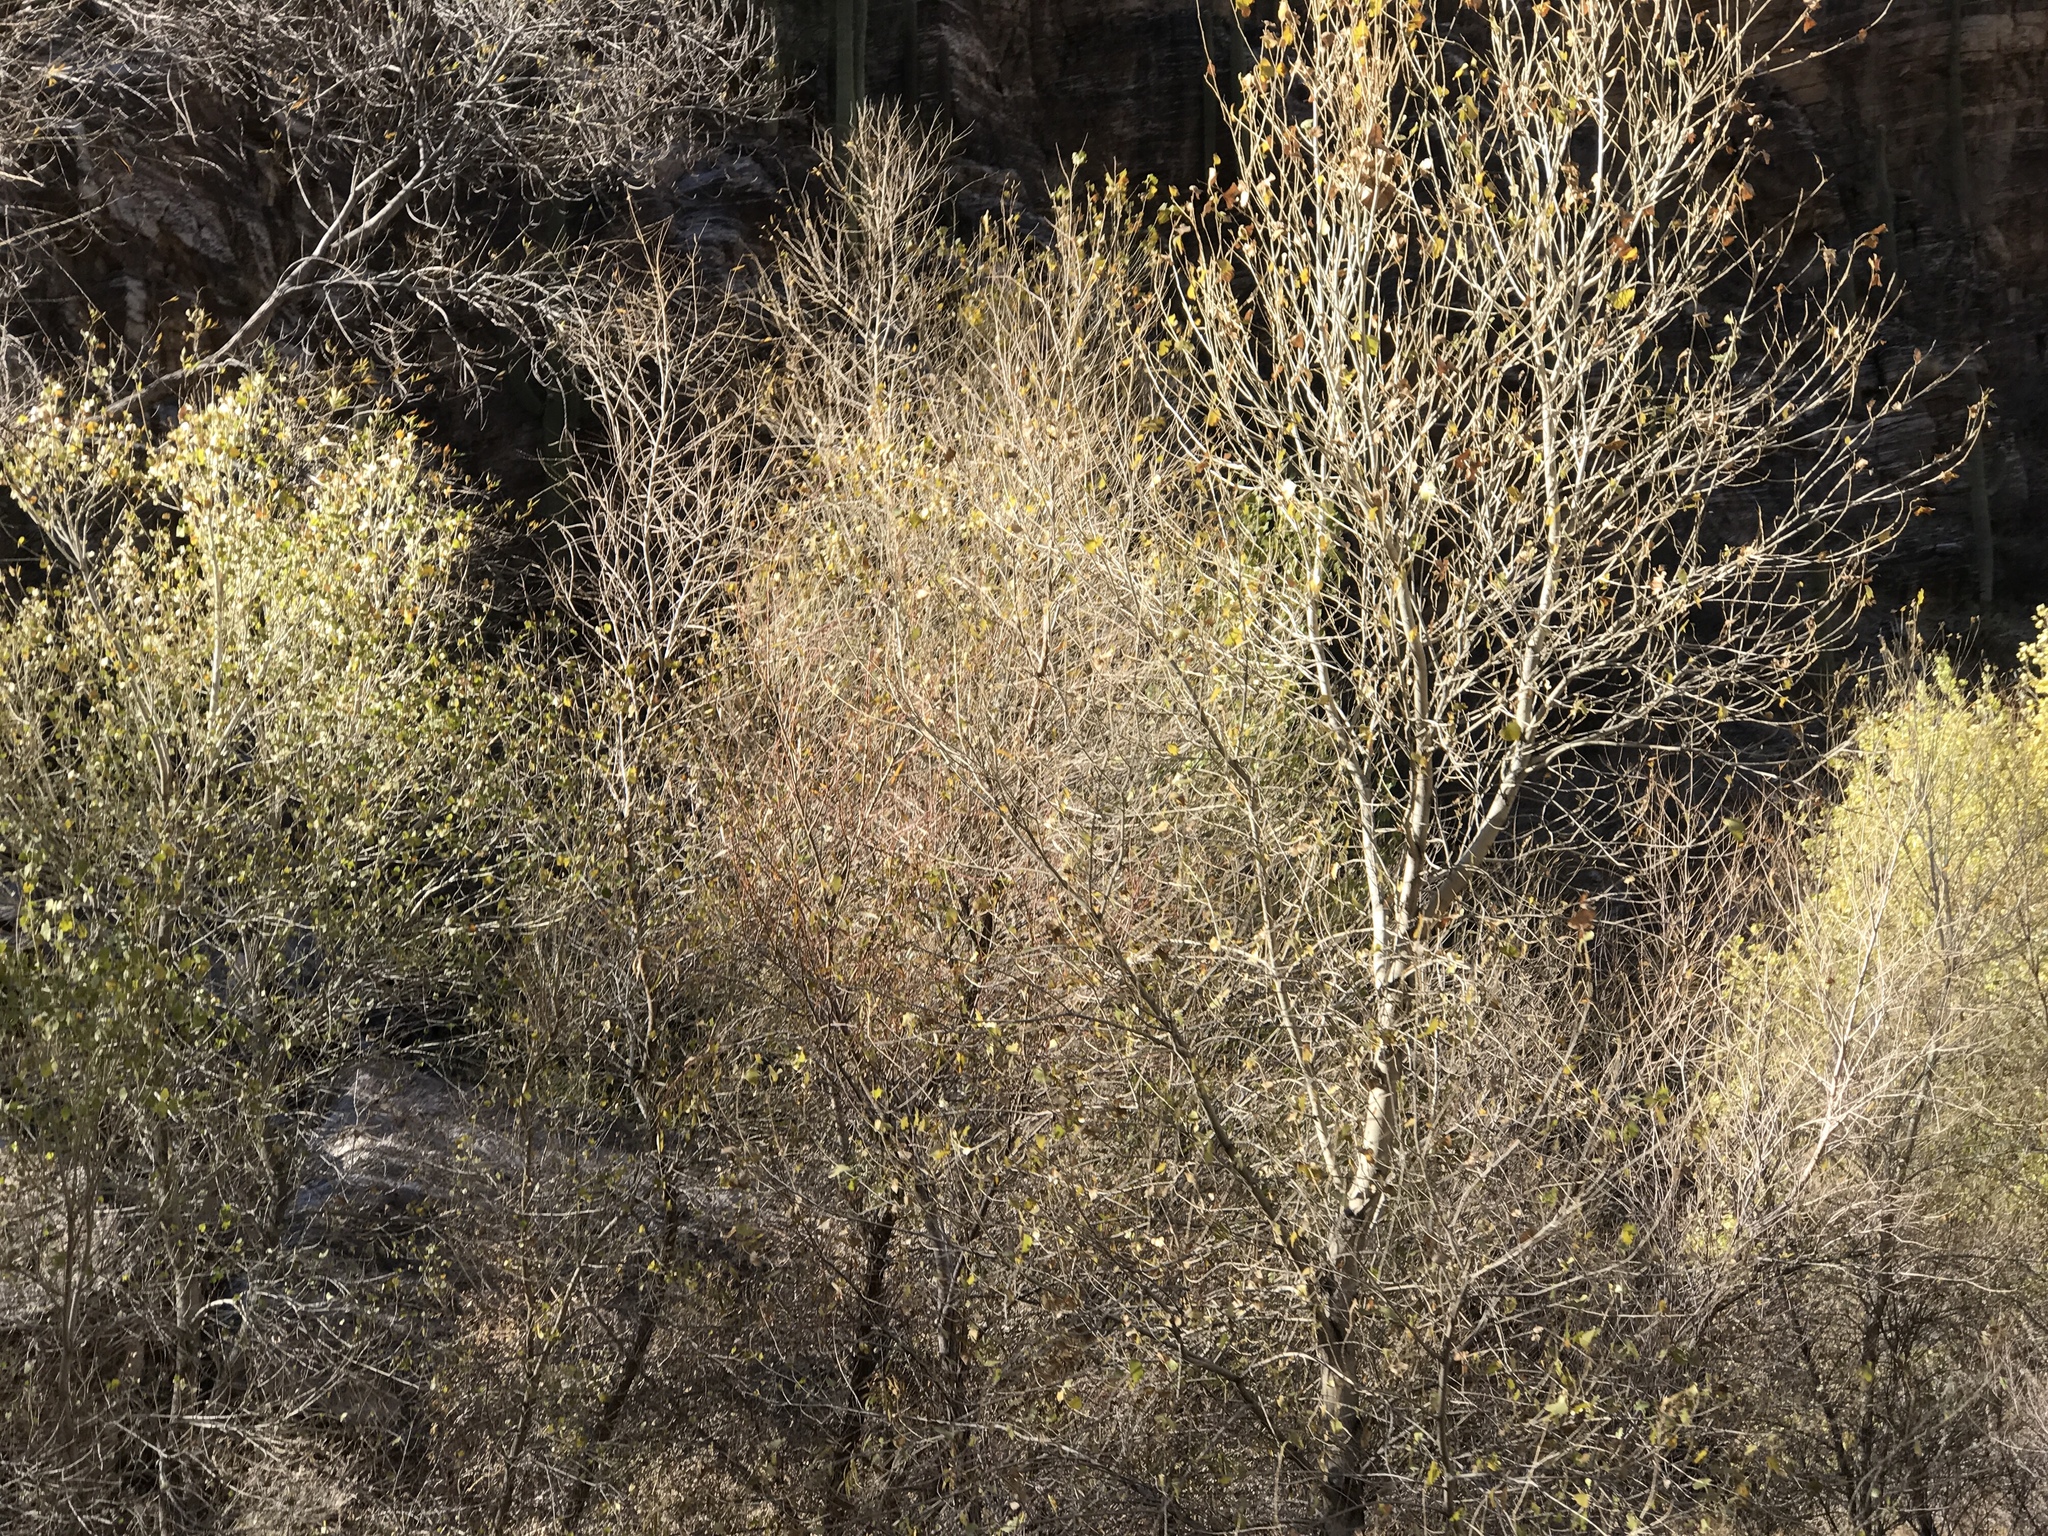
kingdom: Plantae
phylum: Tracheophyta
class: Magnoliopsida
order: Malpighiales
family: Salicaceae
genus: Populus
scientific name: Populus fremontii
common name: Fremont's cottonwood
